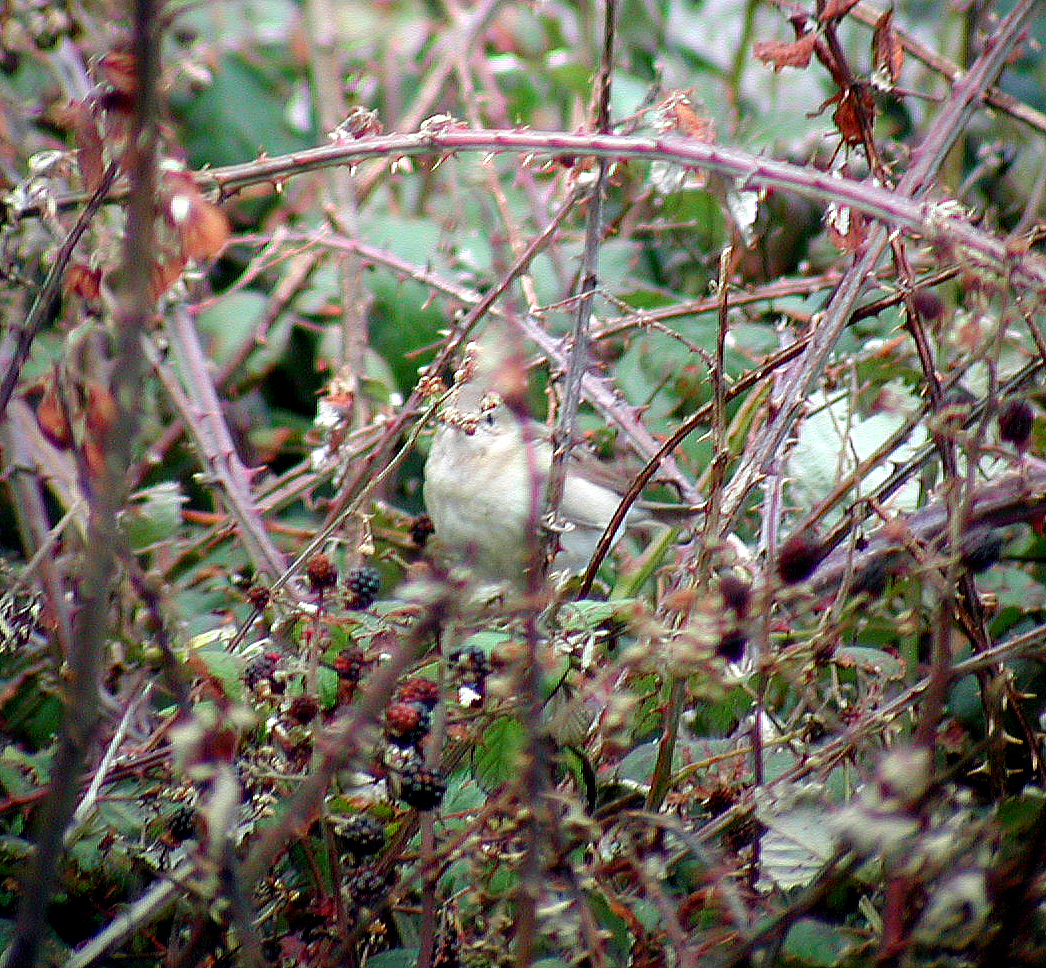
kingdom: Animalia
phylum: Chordata
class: Aves
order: Passeriformes
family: Sylviidae
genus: Sylvia
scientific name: Sylvia borin
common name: Garden warbler
